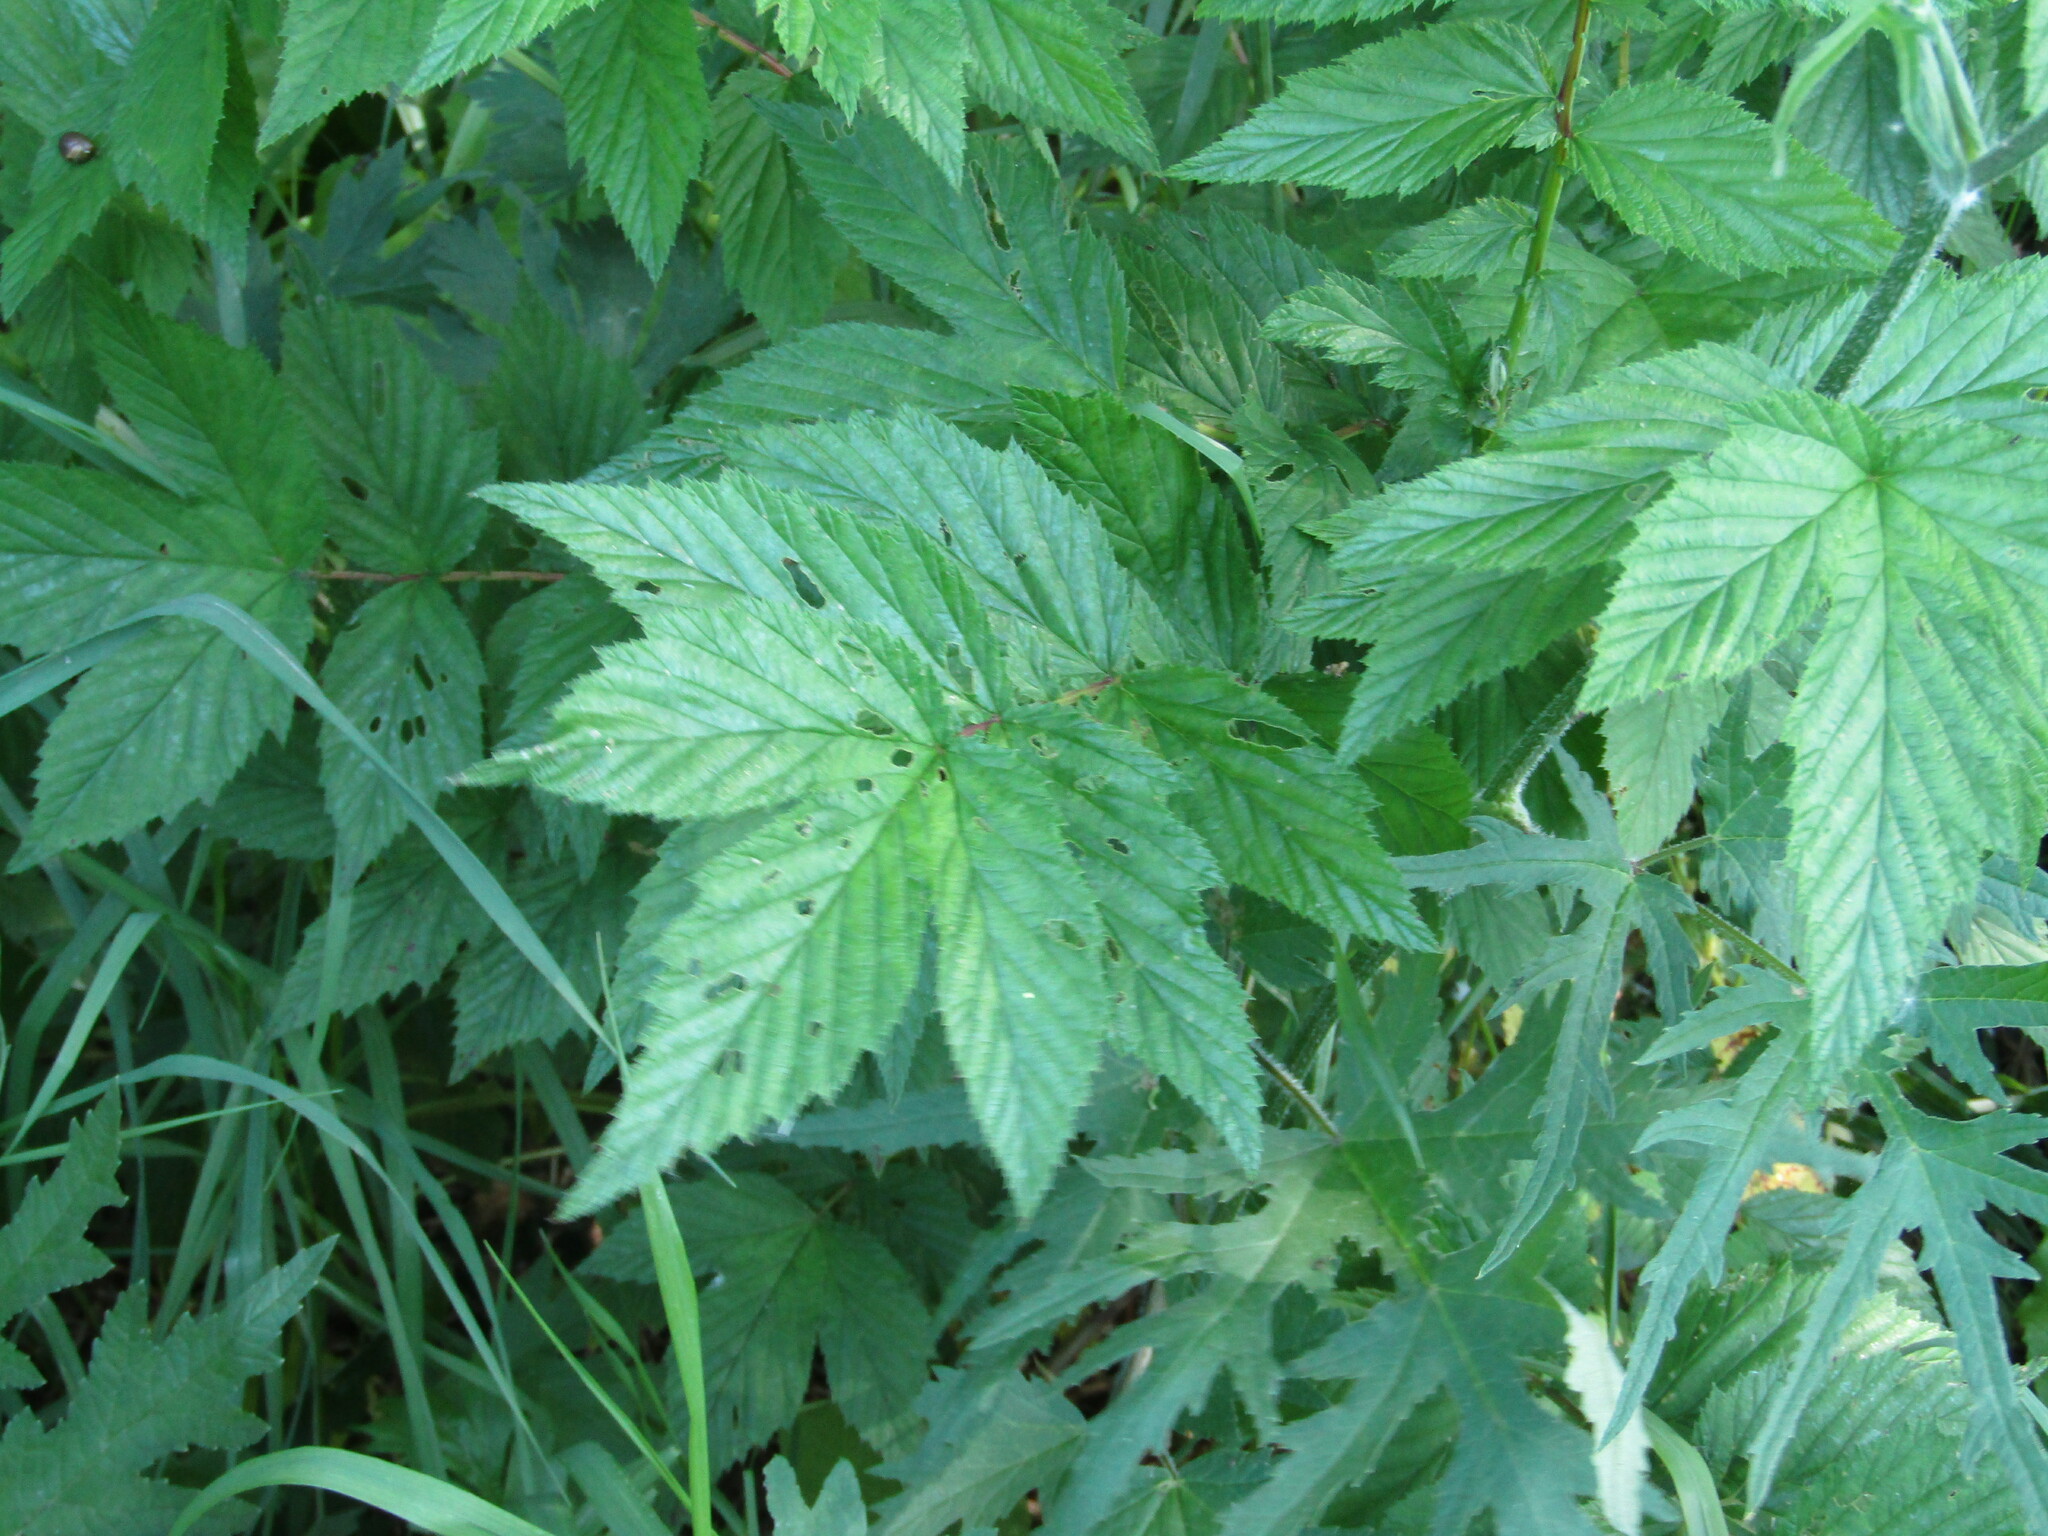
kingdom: Plantae
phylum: Tracheophyta
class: Magnoliopsida
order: Rosales
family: Rosaceae
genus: Filipendula
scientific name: Filipendula ulmaria
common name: Meadowsweet
